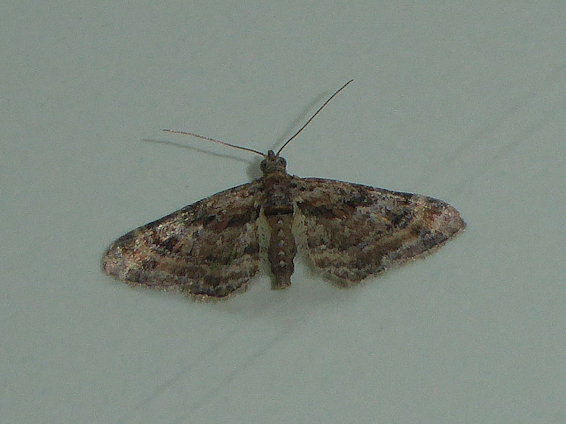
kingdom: Animalia
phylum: Arthropoda
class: Insecta
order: Lepidoptera
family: Geometridae
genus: Gymnoscelis
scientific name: Gymnoscelis rufifasciata
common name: Double-striped pug
